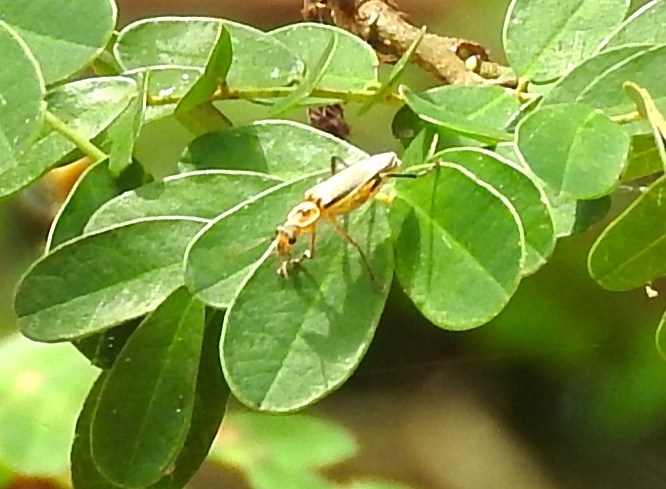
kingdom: Animalia
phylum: Arthropoda
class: Insecta
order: Coleoptera
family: Cantharidae
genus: Chauliognathus
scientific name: Chauliognathus
